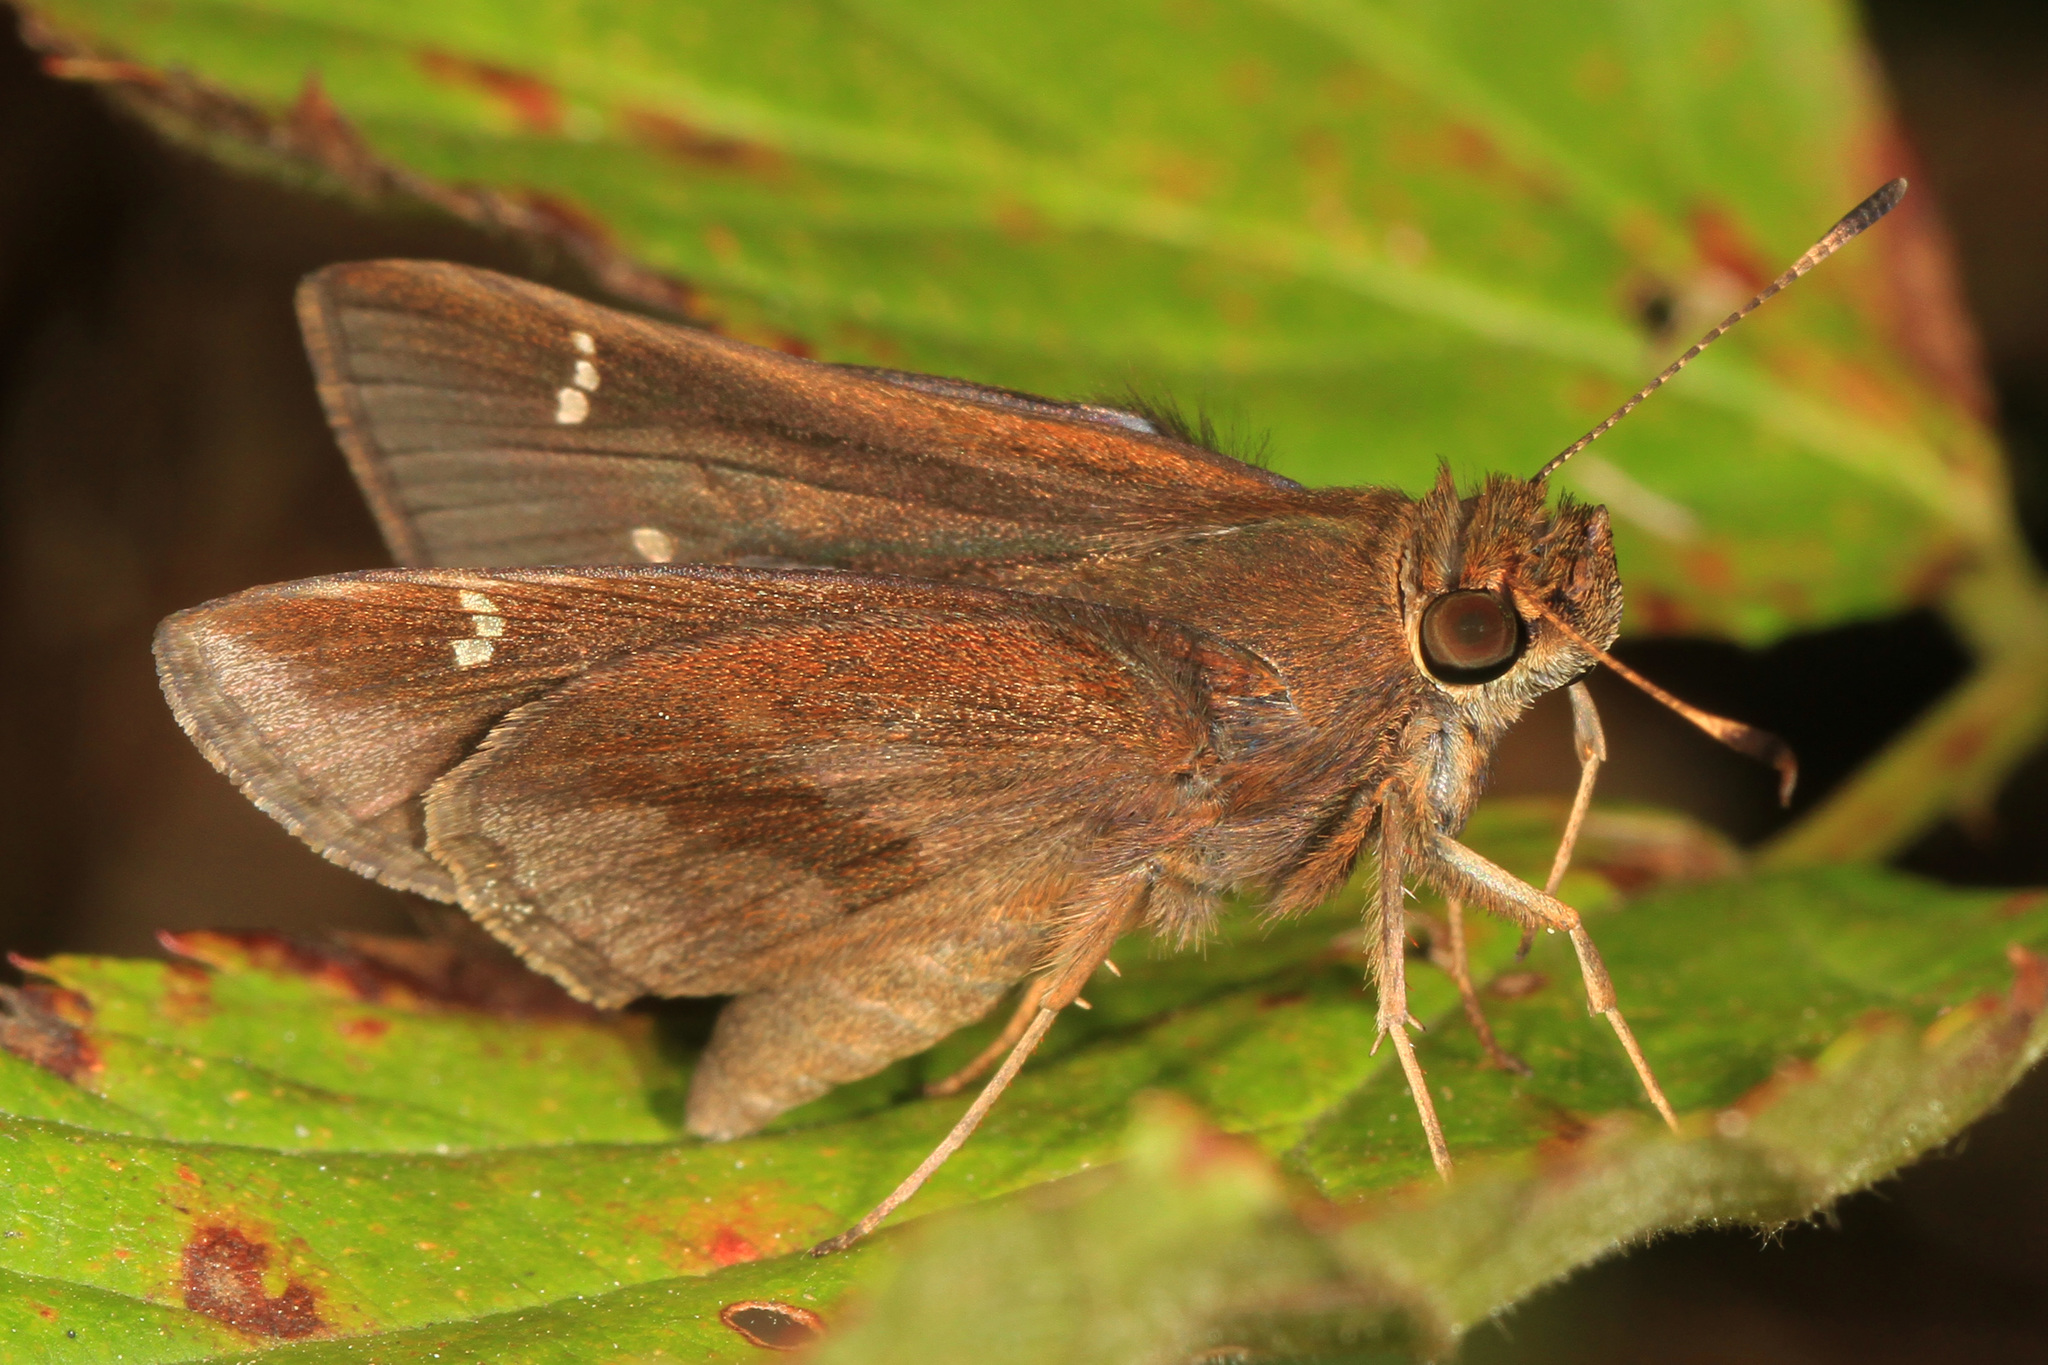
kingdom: Animalia
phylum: Arthropoda
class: Insecta
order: Lepidoptera
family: Hesperiidae
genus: Lerema
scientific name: Lerema accius
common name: Clouded skipper
